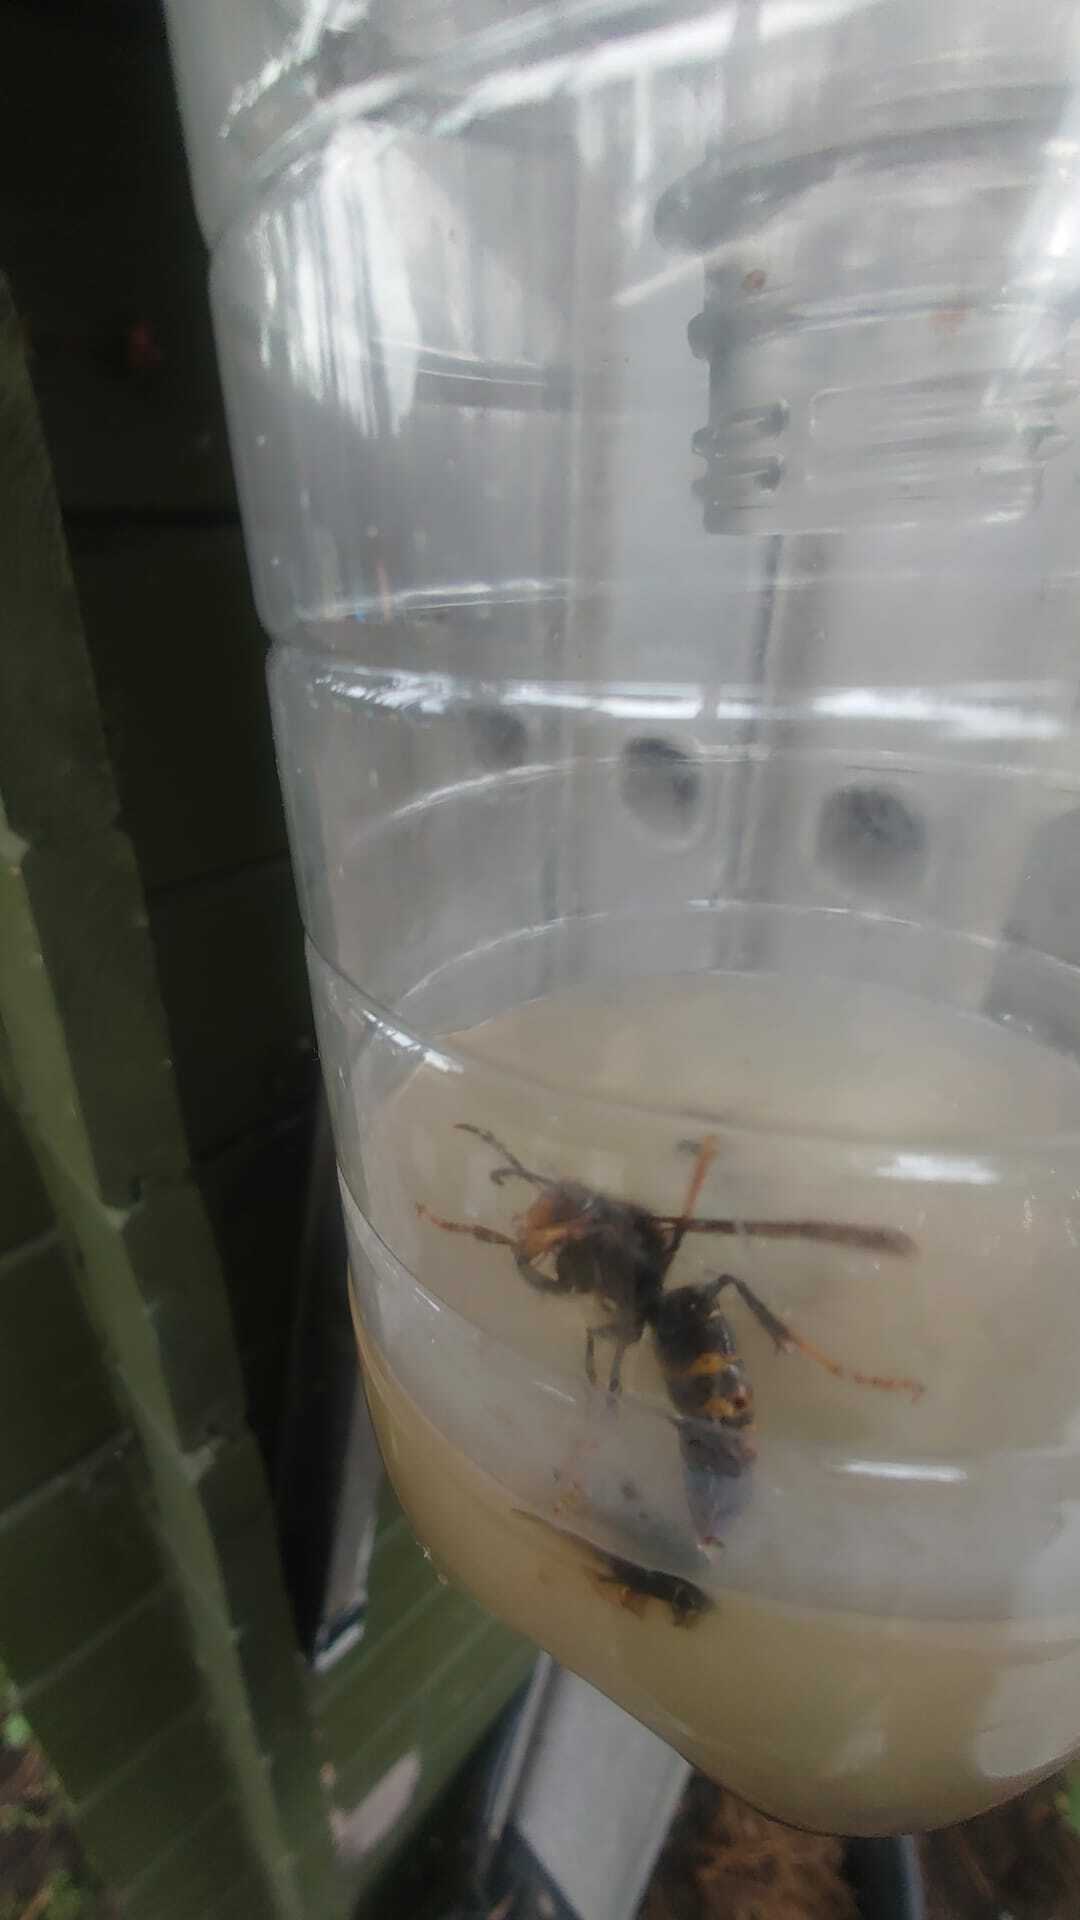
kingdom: Animalia
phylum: Arthropoda
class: Insecta
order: Hymenoptera
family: Vespidae
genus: Vespa
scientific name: Vespa velutina
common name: Asian hornet
